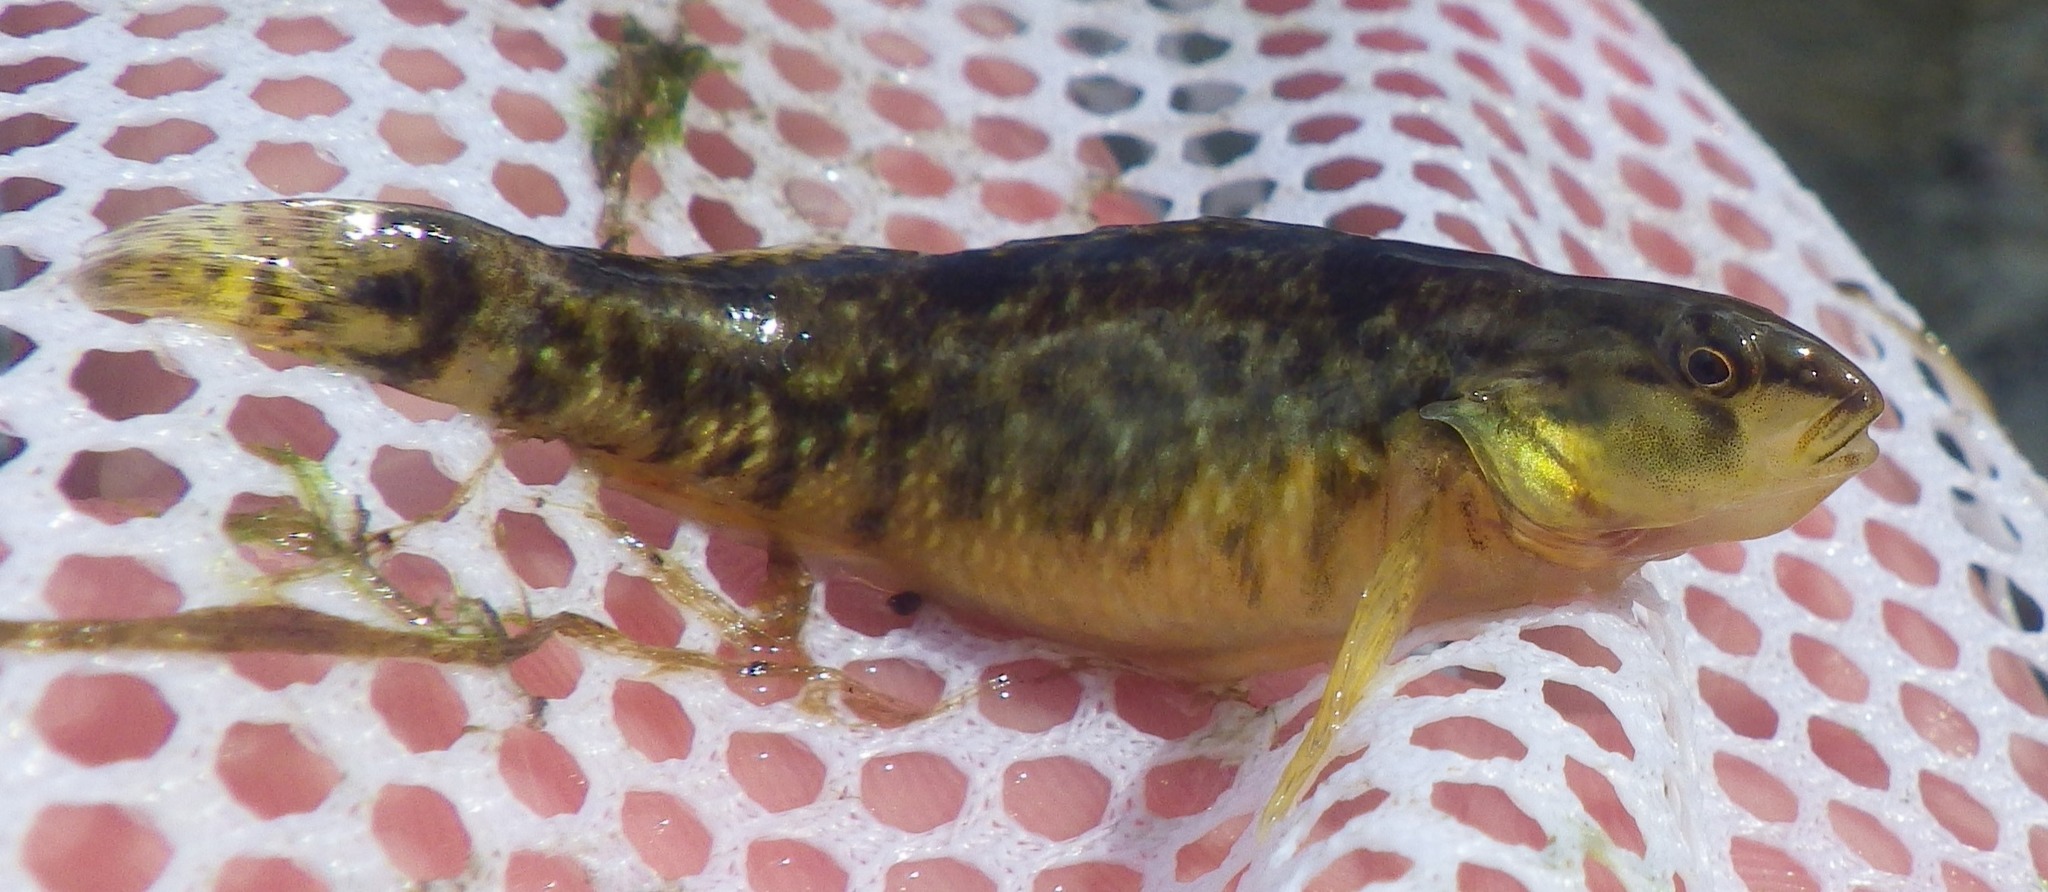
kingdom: Animalia
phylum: Chordata
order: Perciformes
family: Percidae
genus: Etheostoma
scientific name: Etheostoma caeruleum
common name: Rainbow darter
